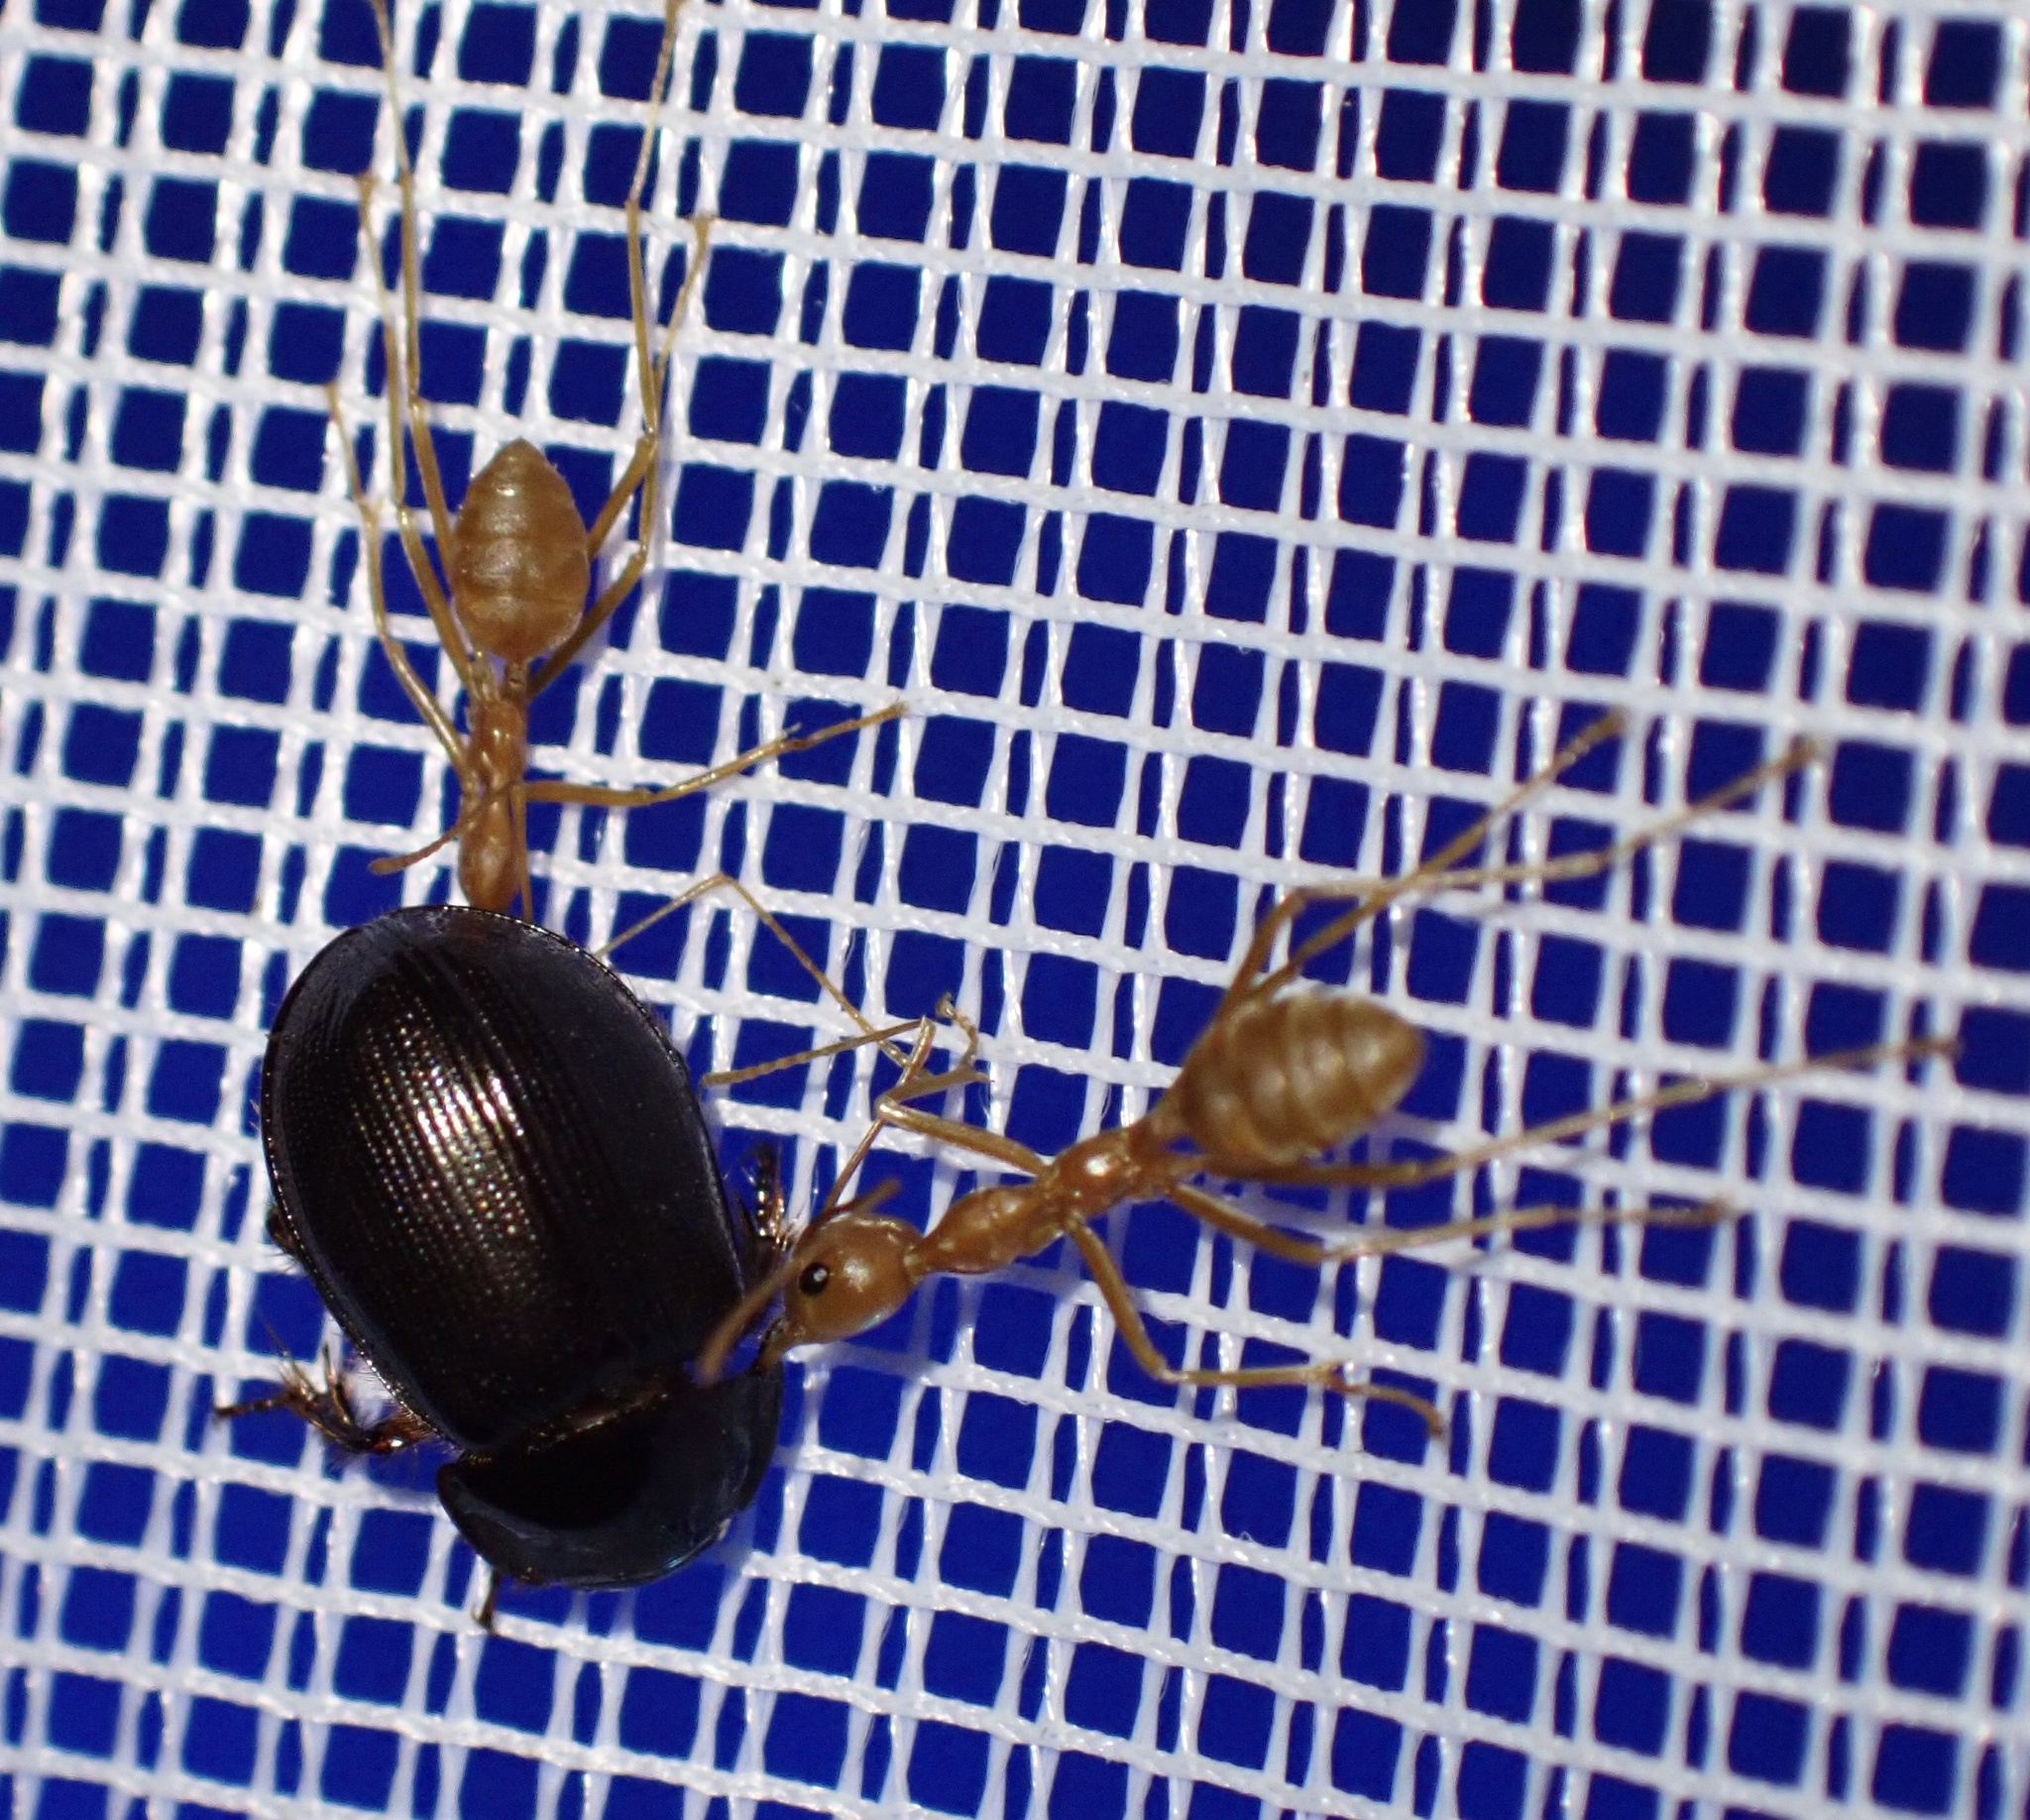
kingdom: Animalia
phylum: Arthropoda
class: Insecta
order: Hymenoptera
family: Formicidae
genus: Oecophylla
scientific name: Oecophylla smaragdina
